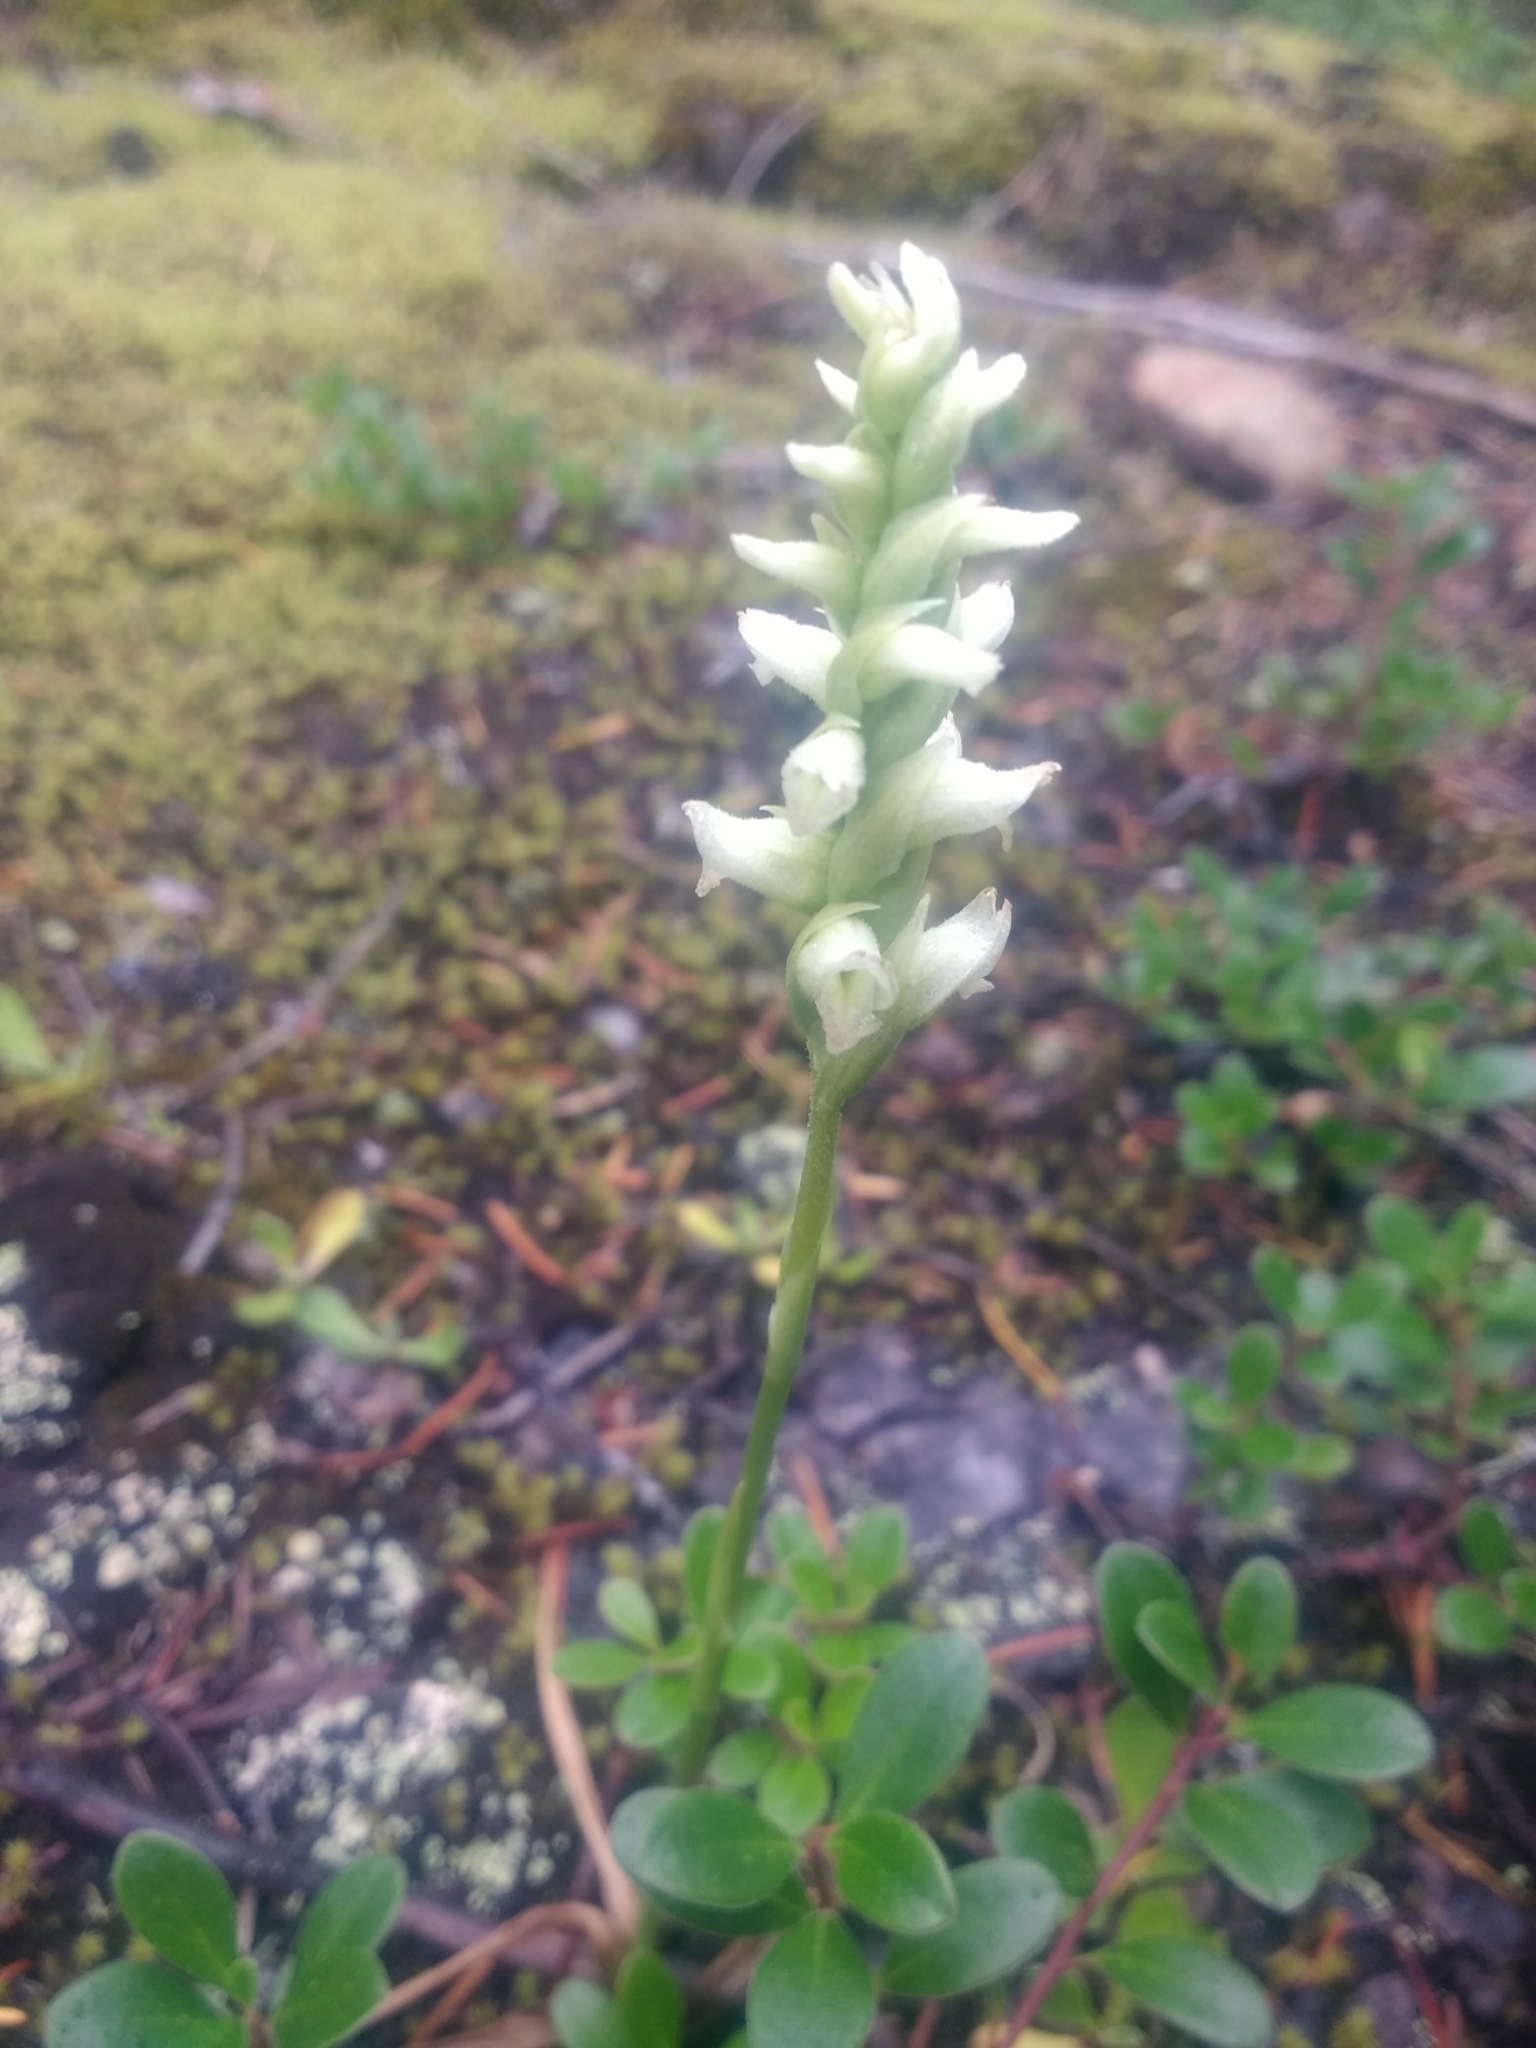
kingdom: Plantae
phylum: Tracheophyta
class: Liliopsida
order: Asparagales
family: Orchidaceae
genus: Spiranthes
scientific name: Spiranthes romanzoffiana
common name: Irish lady's-tresses
